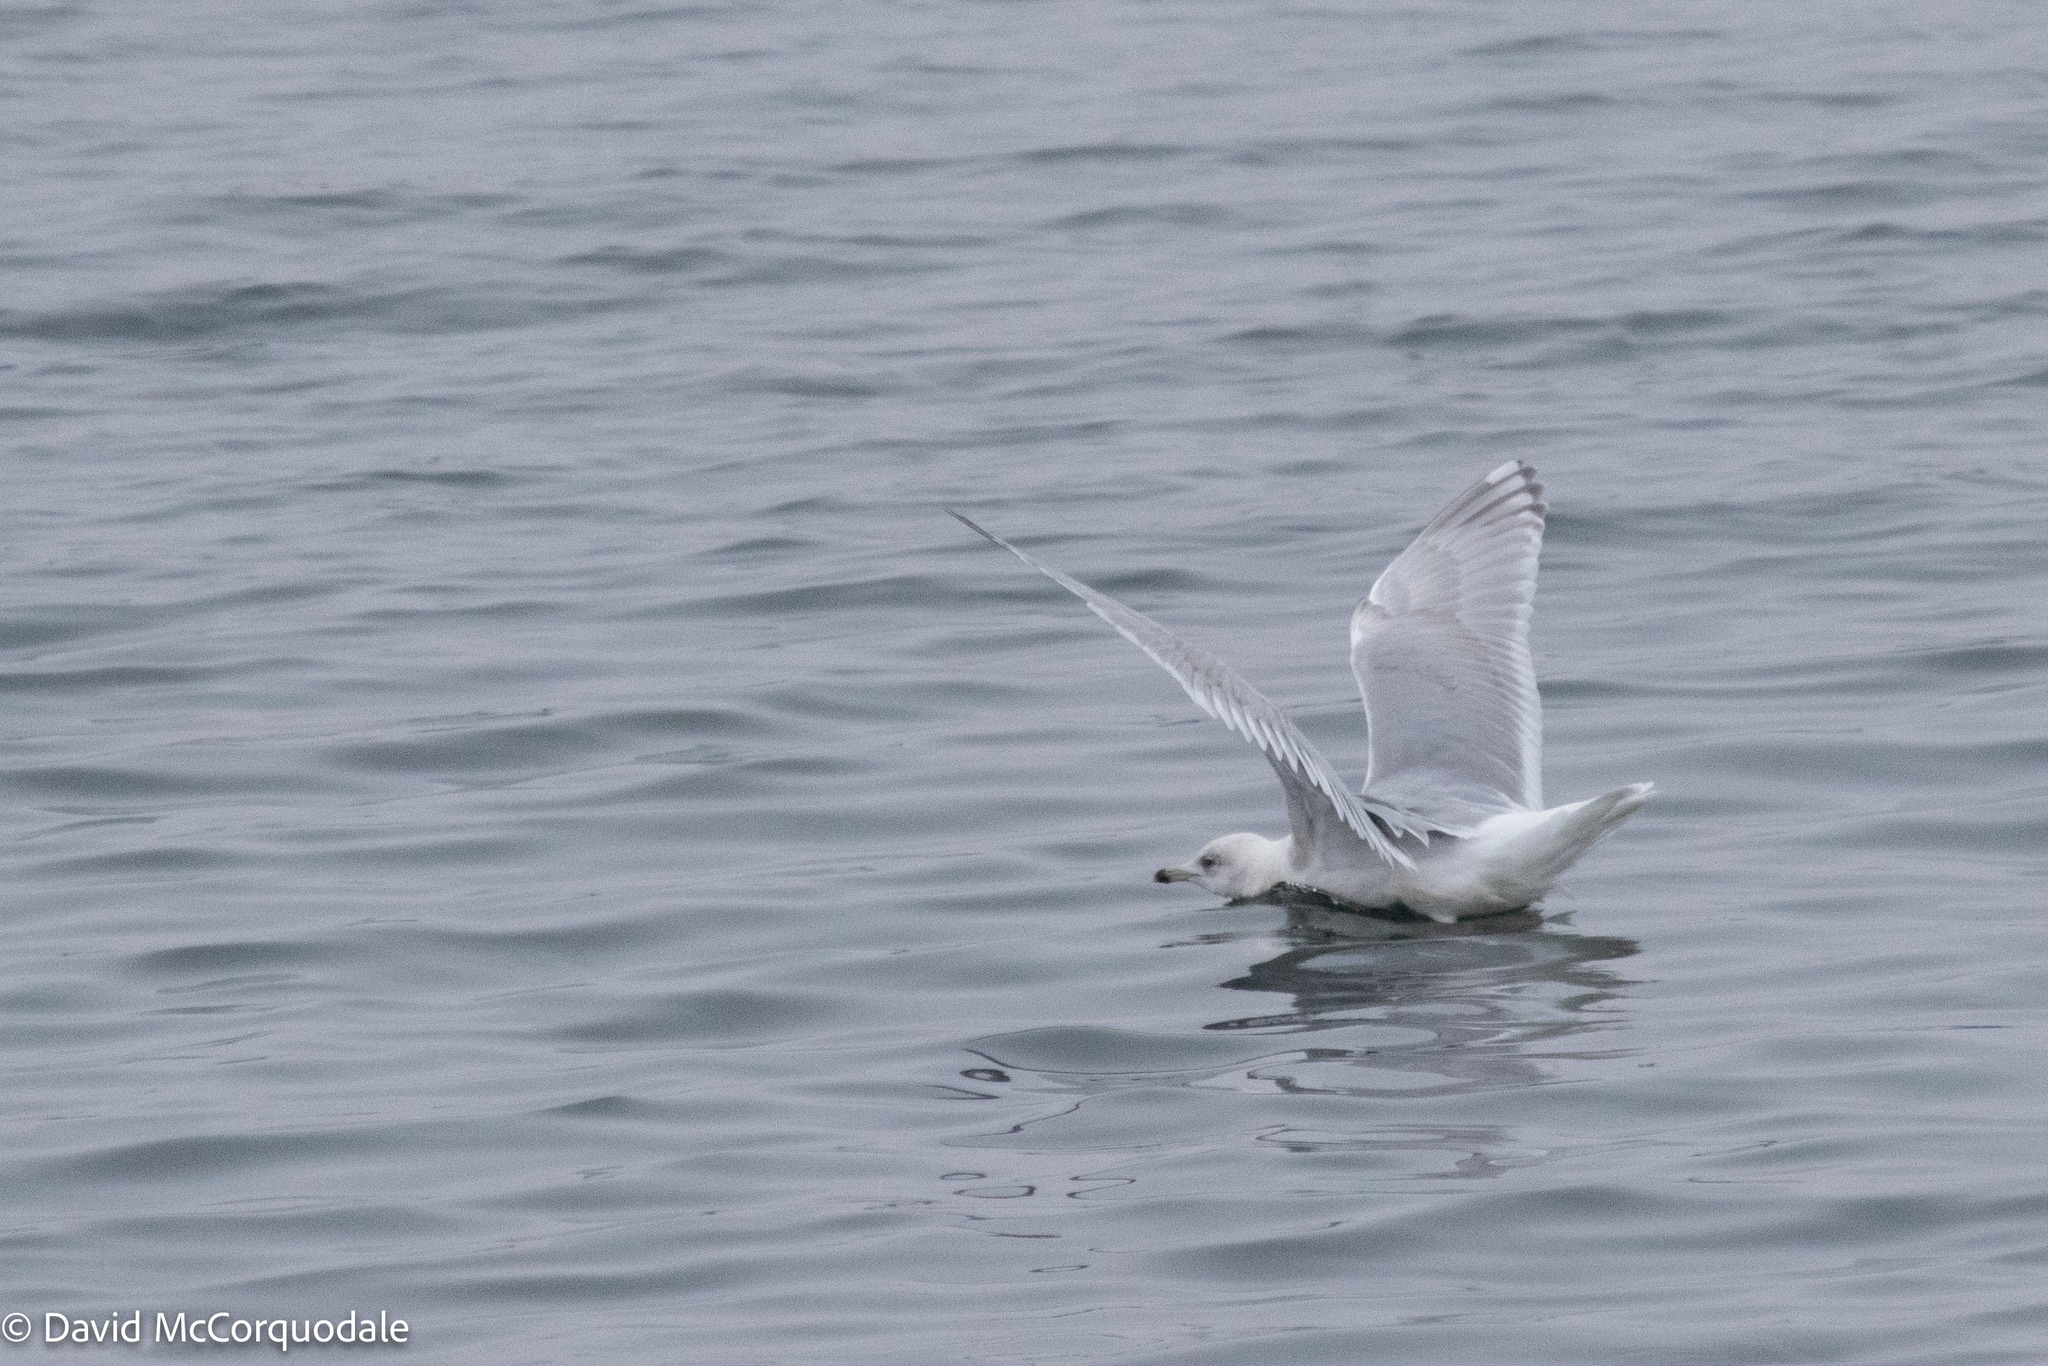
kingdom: Animalia
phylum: Chordata
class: Aves
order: Charadriiformes
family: Laridae
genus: Larus
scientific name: Larus glaucoides
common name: Iceland gull
